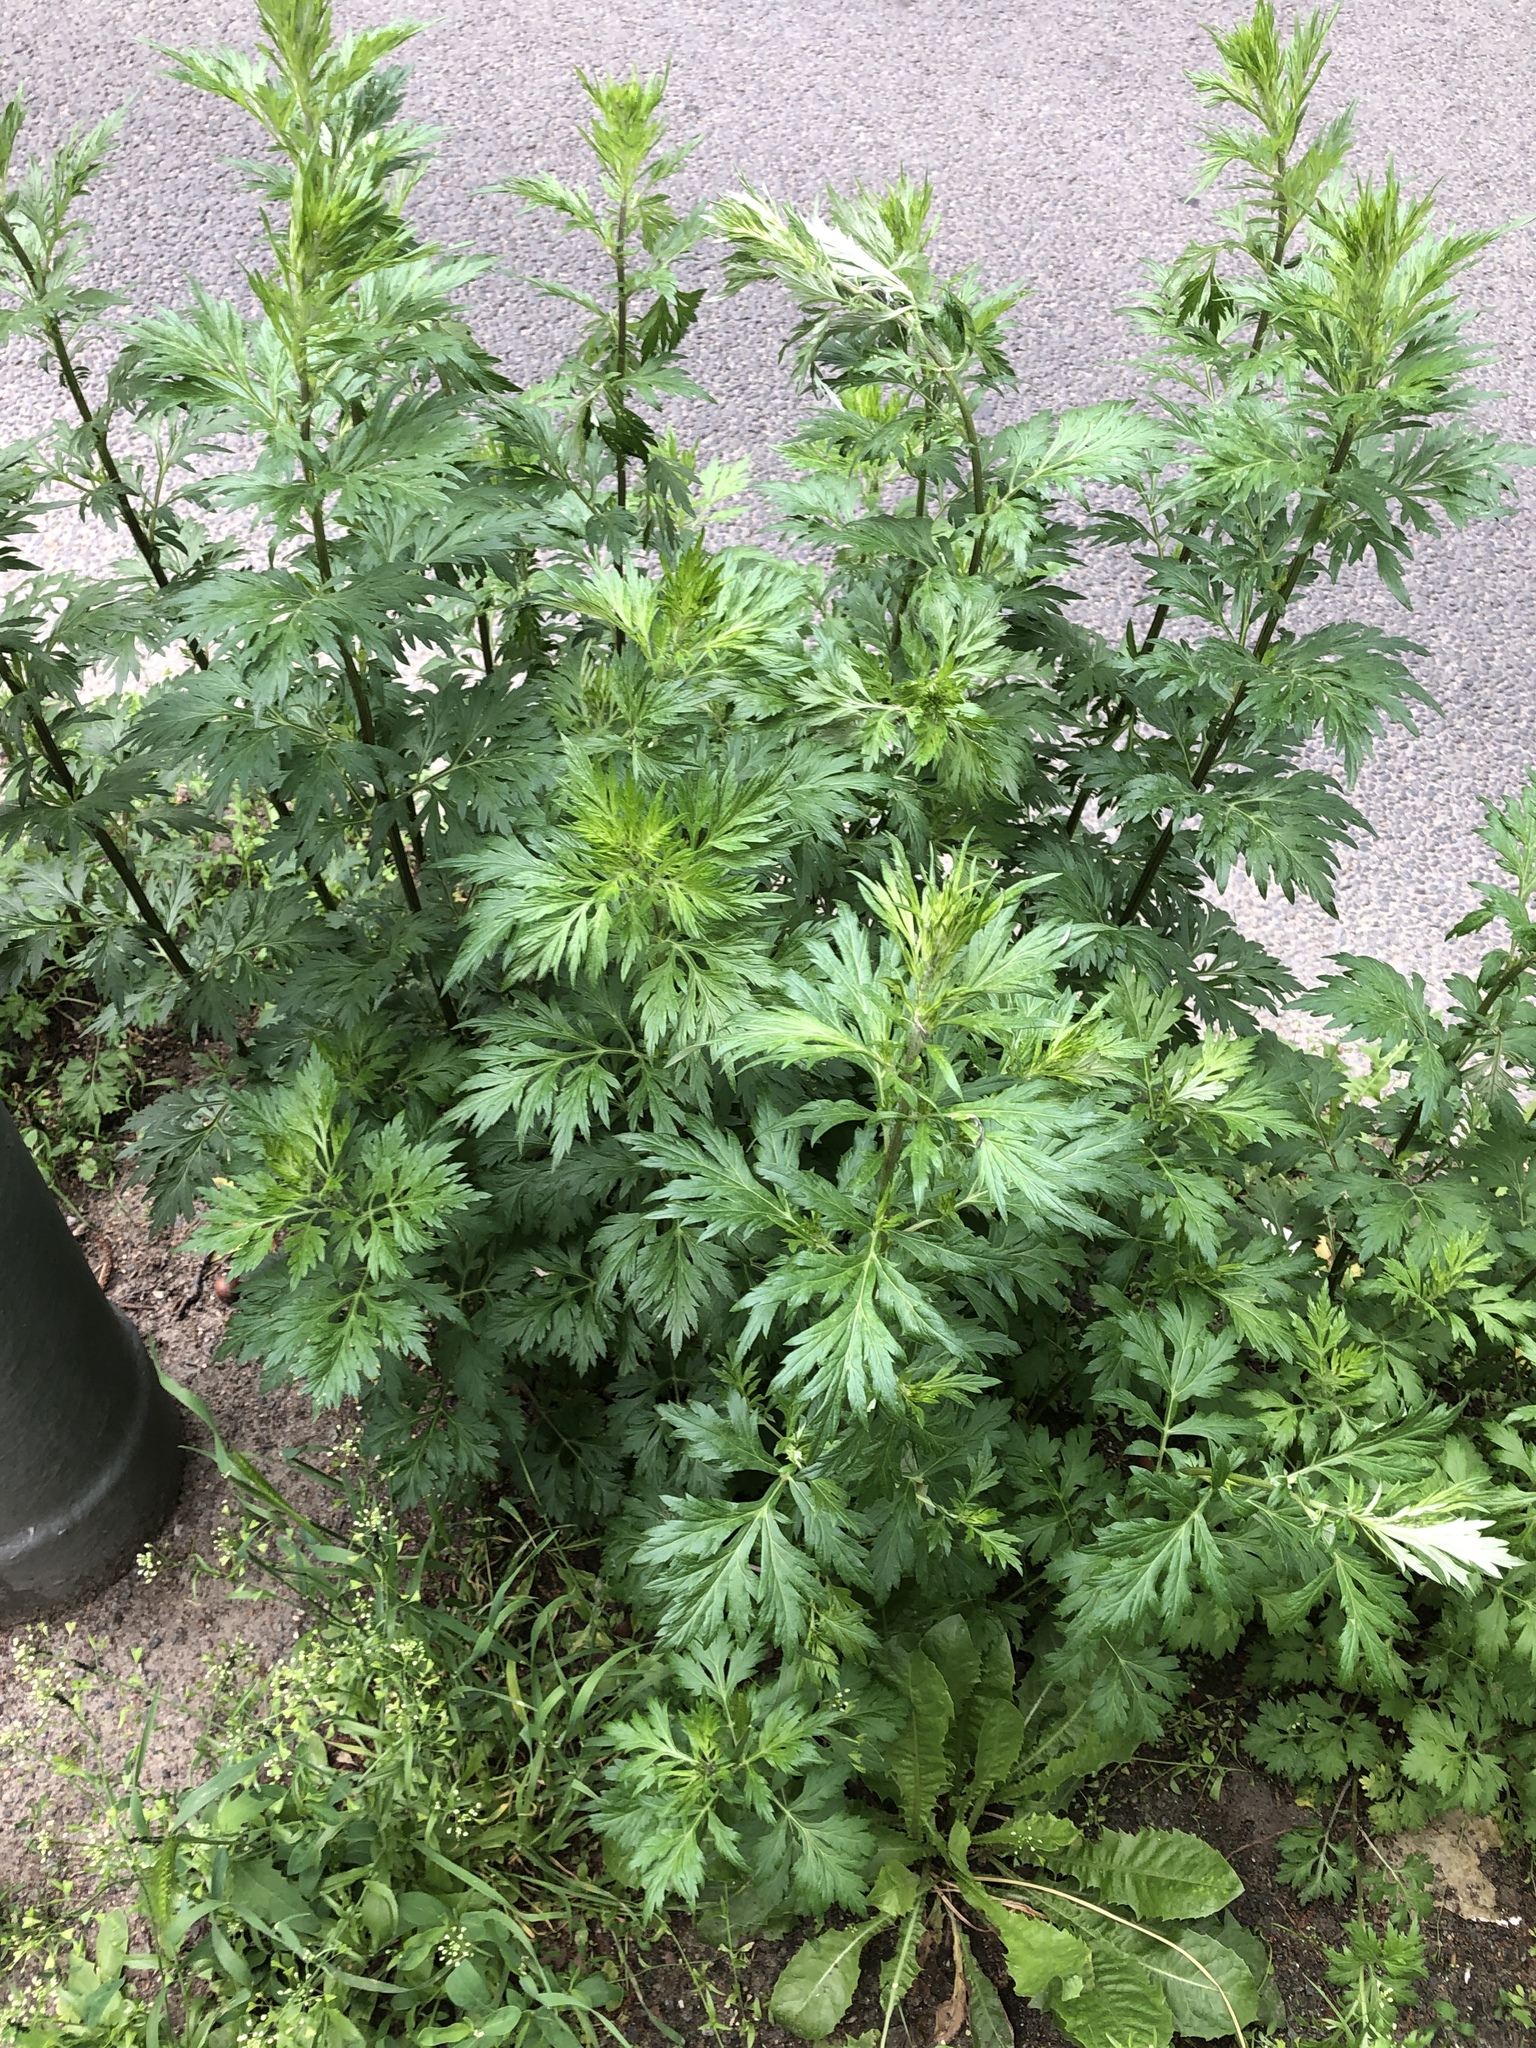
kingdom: Plantae
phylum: Tracheophyta
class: Magnoliopsida
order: Asterales
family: Asteraceae
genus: Artemisia
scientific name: Artemisia vulgaris
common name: Mugwort
